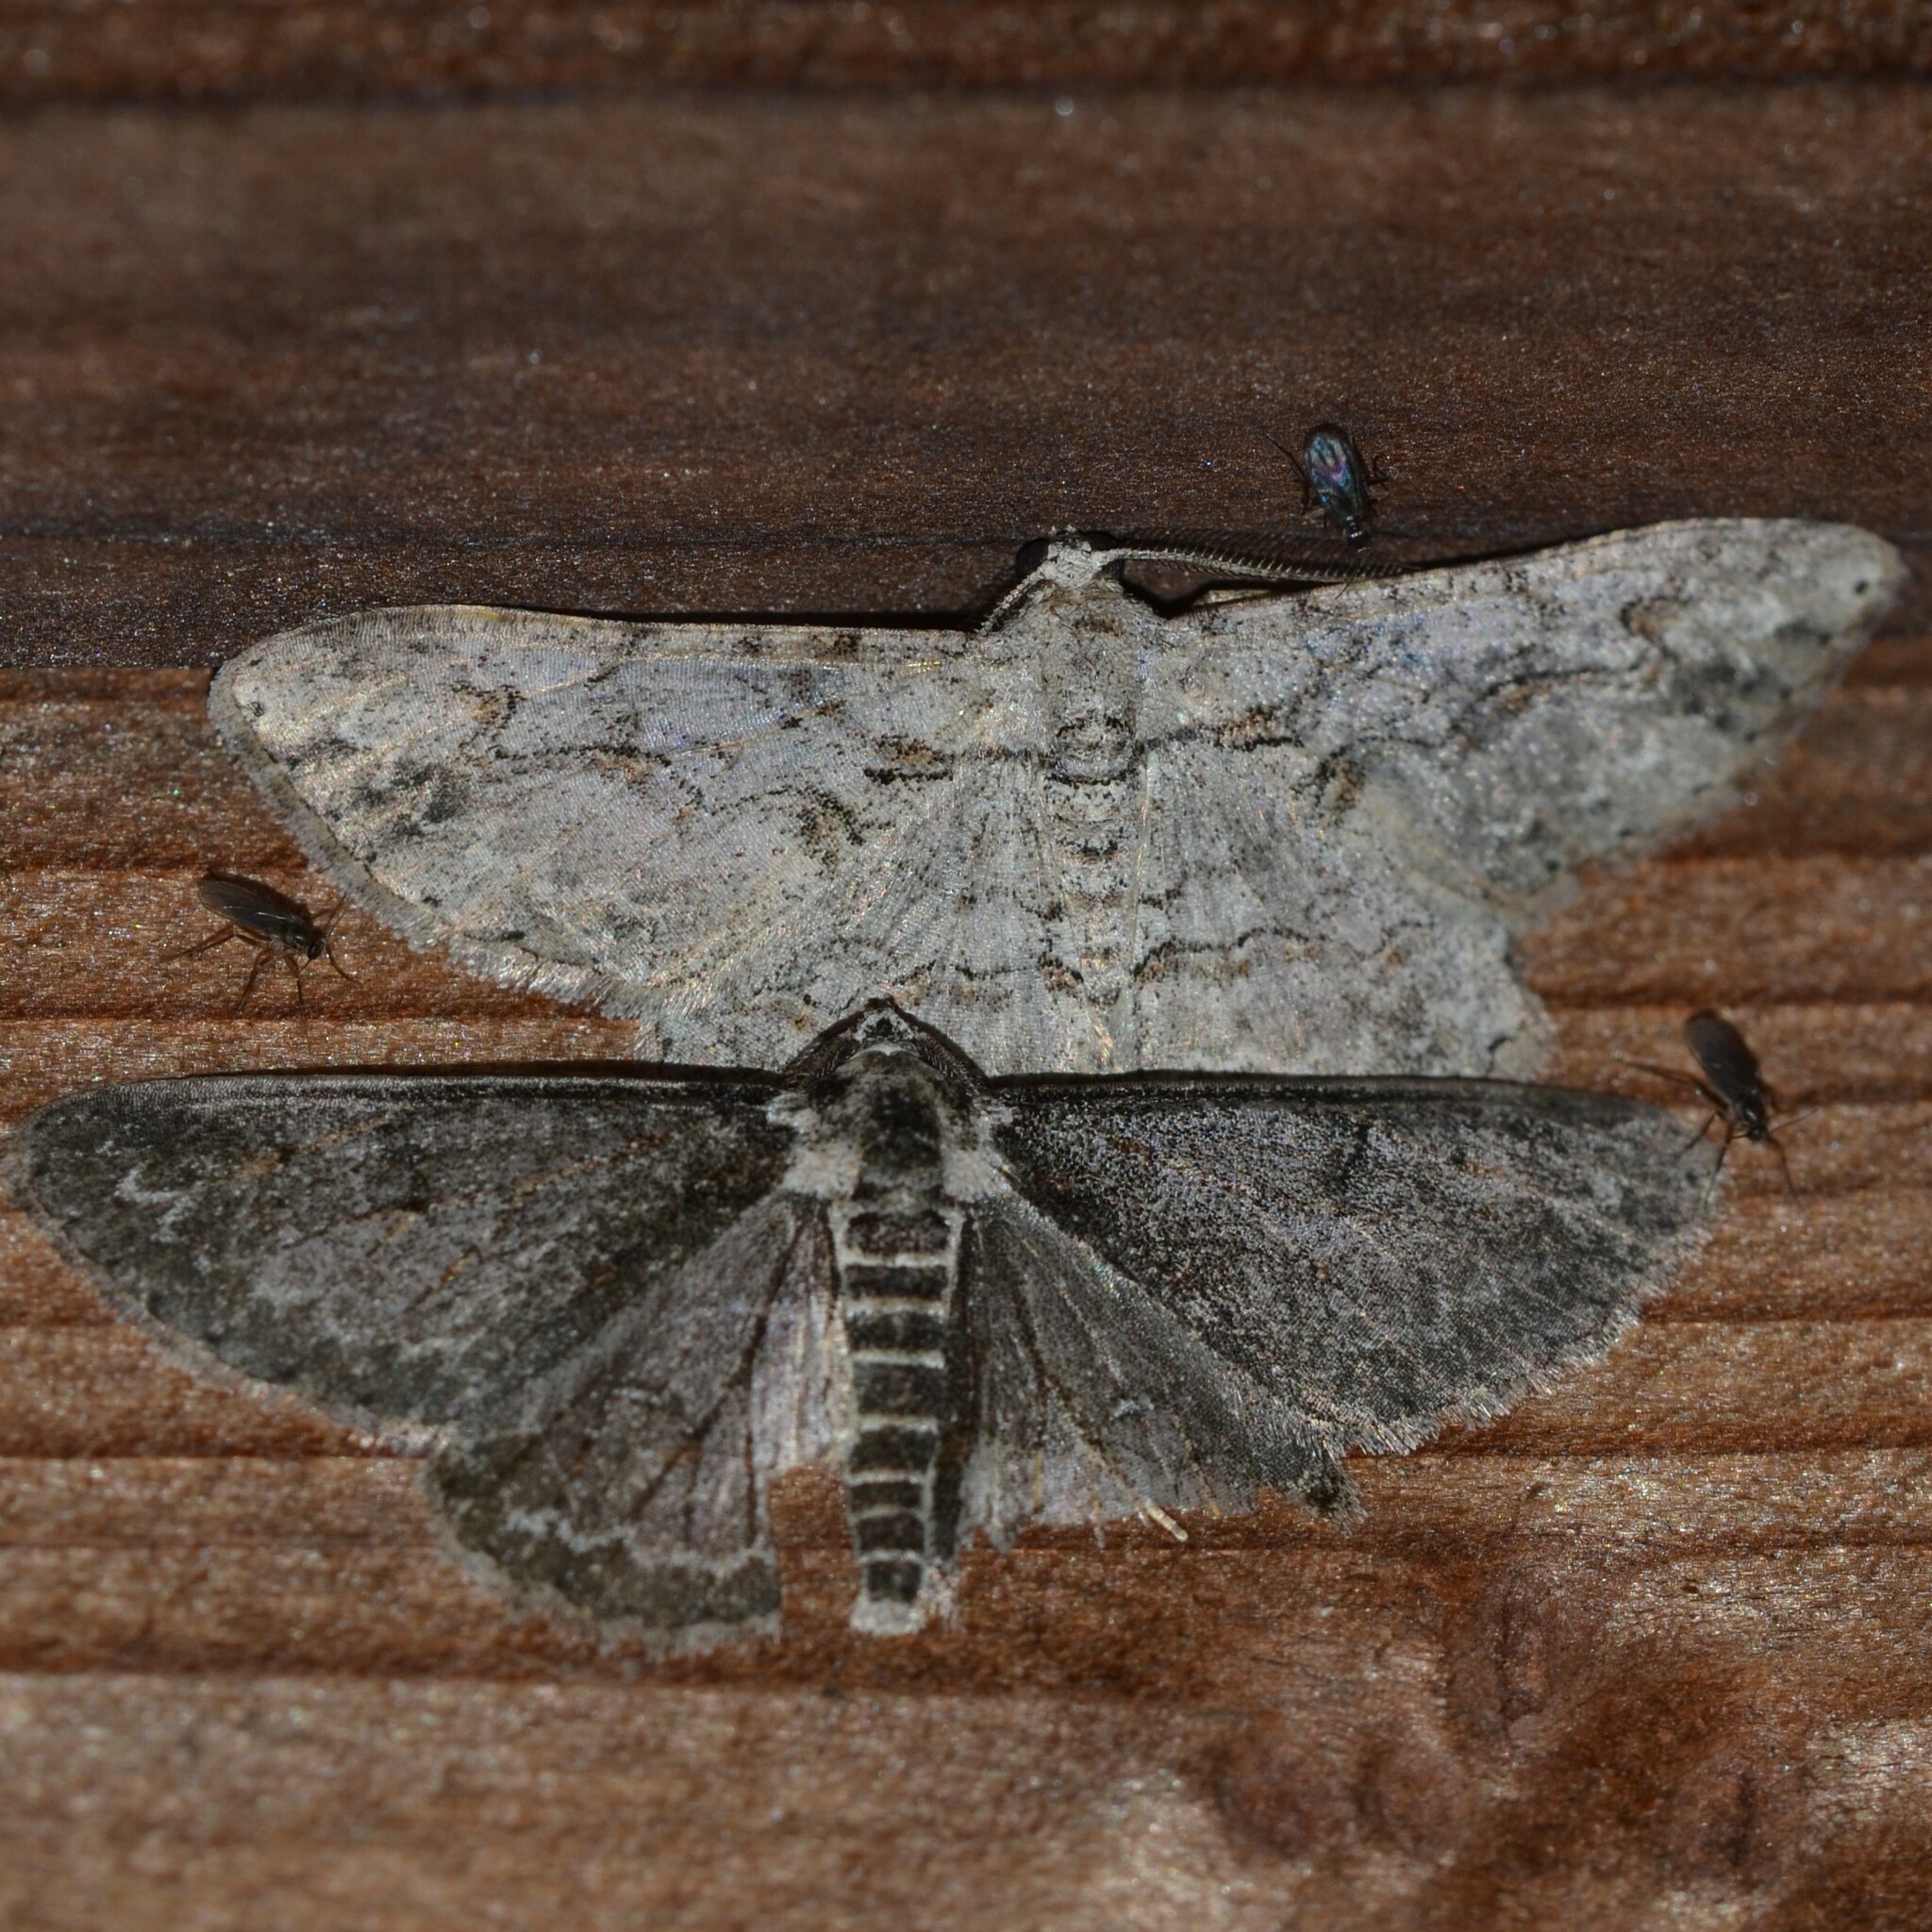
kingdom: Animalia
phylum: Arthropoda
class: Insecta
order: Lepidoptera
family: Geometridae
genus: Iridopsis
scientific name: Iridopsis fragilaria
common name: Moth
